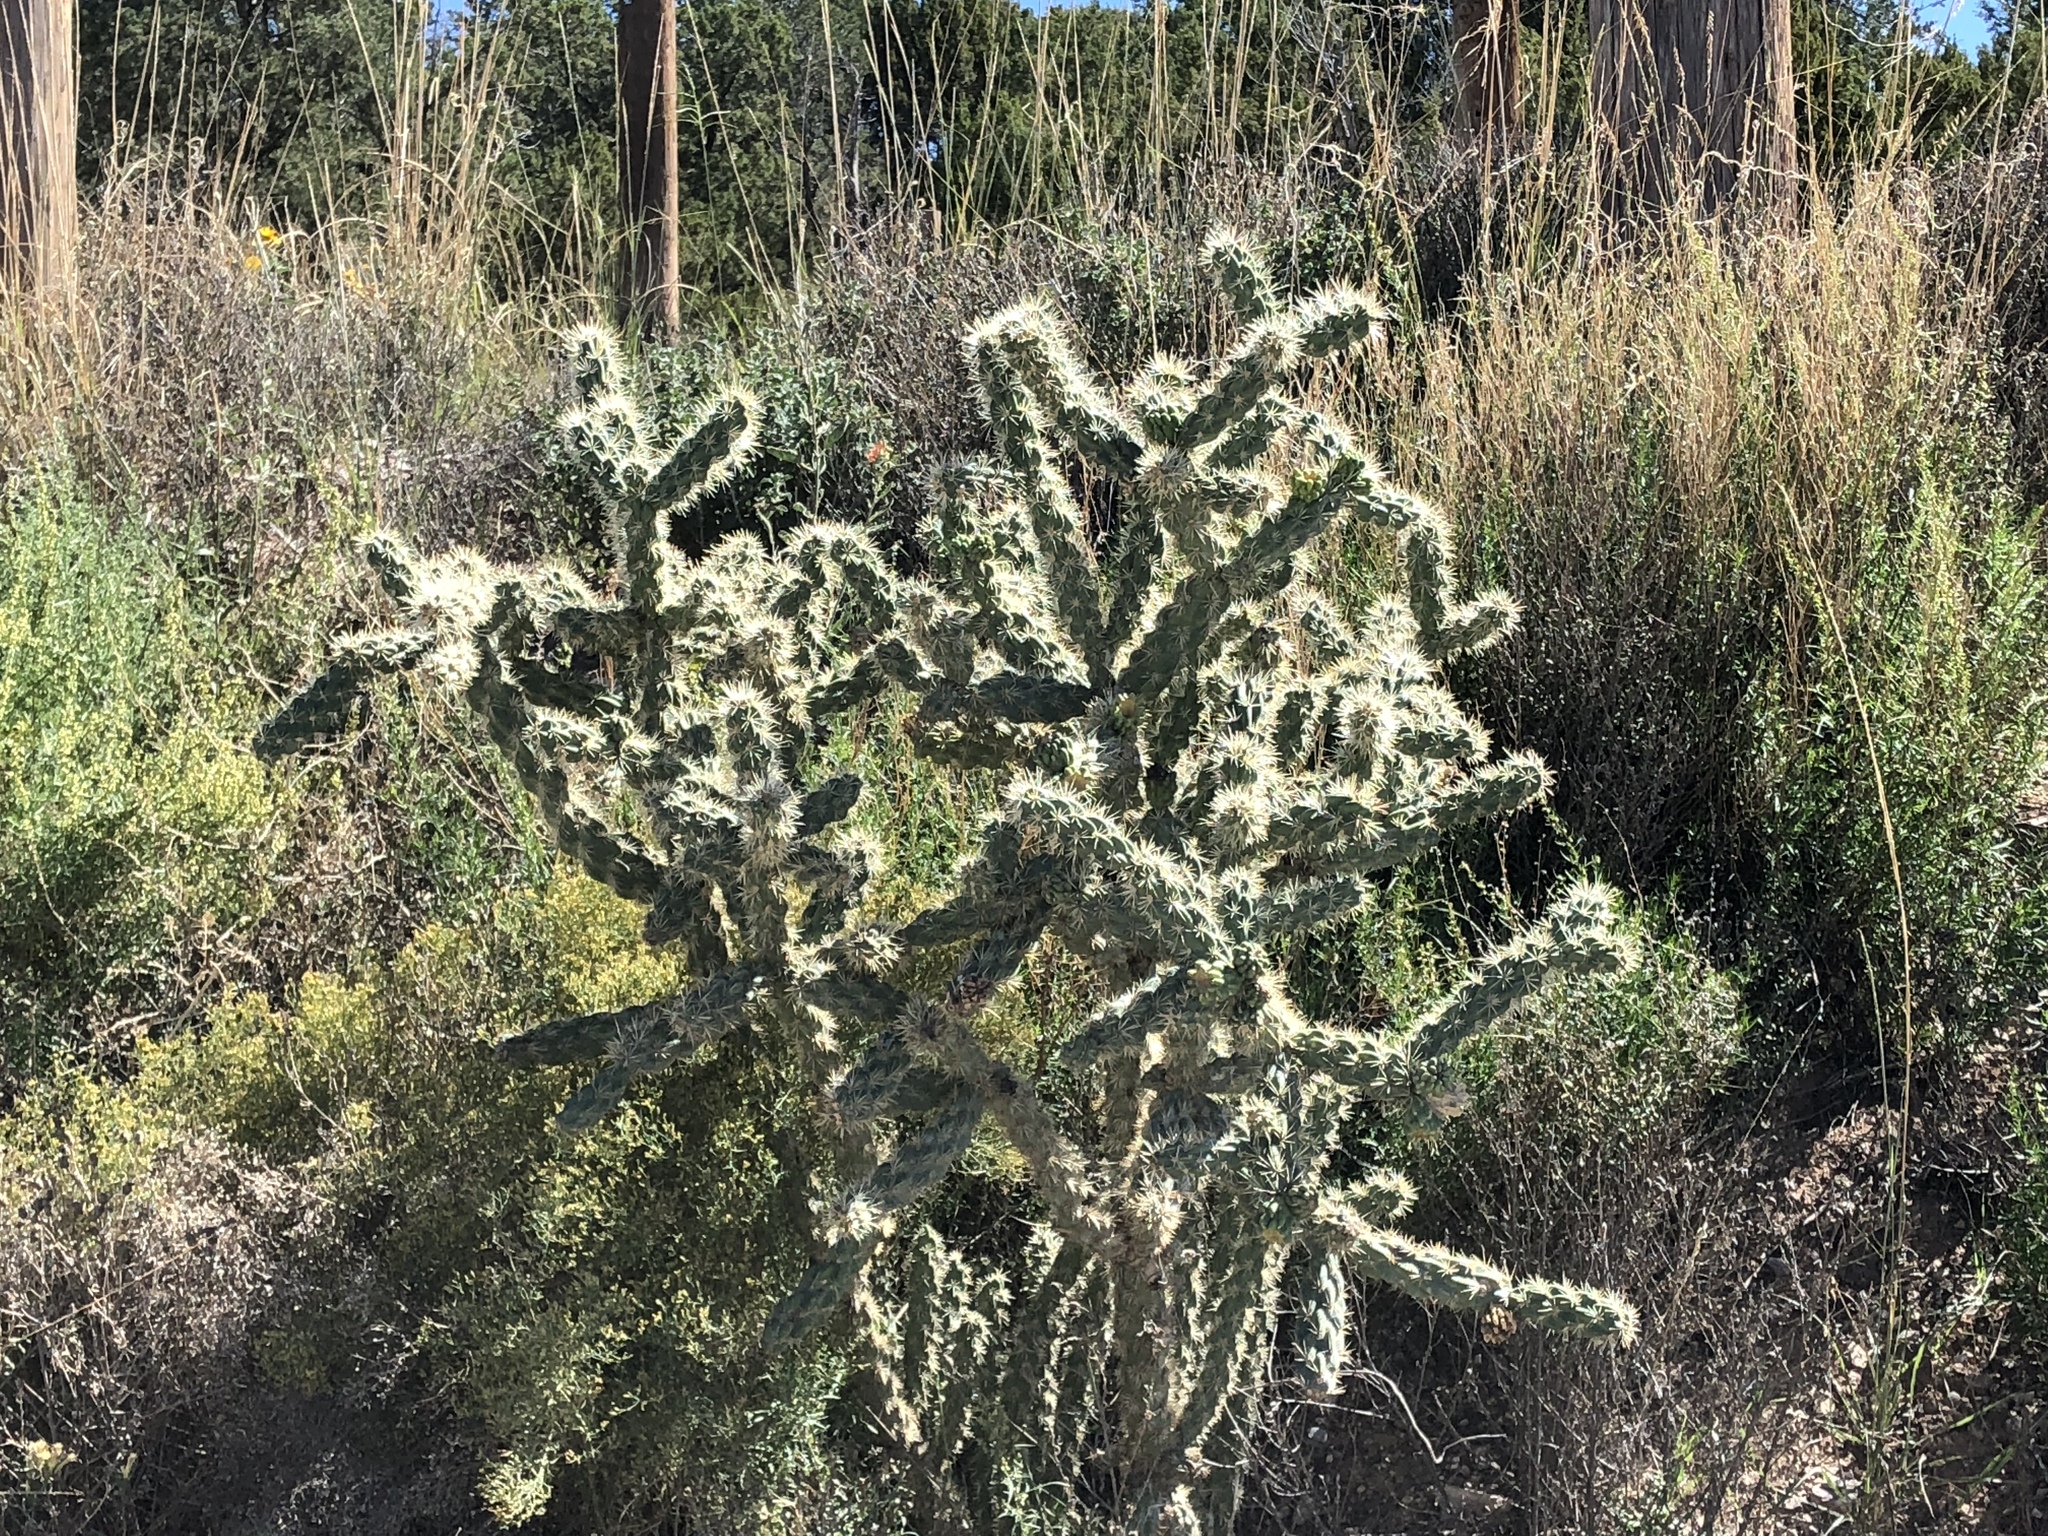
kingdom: Plantae
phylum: Tracheophyta
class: Magnoliopsida
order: Caryophyllales
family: Cactaceae
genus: Cylindropuntia
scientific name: Cylindropuntia imbricata
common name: Candelabrum cactus
